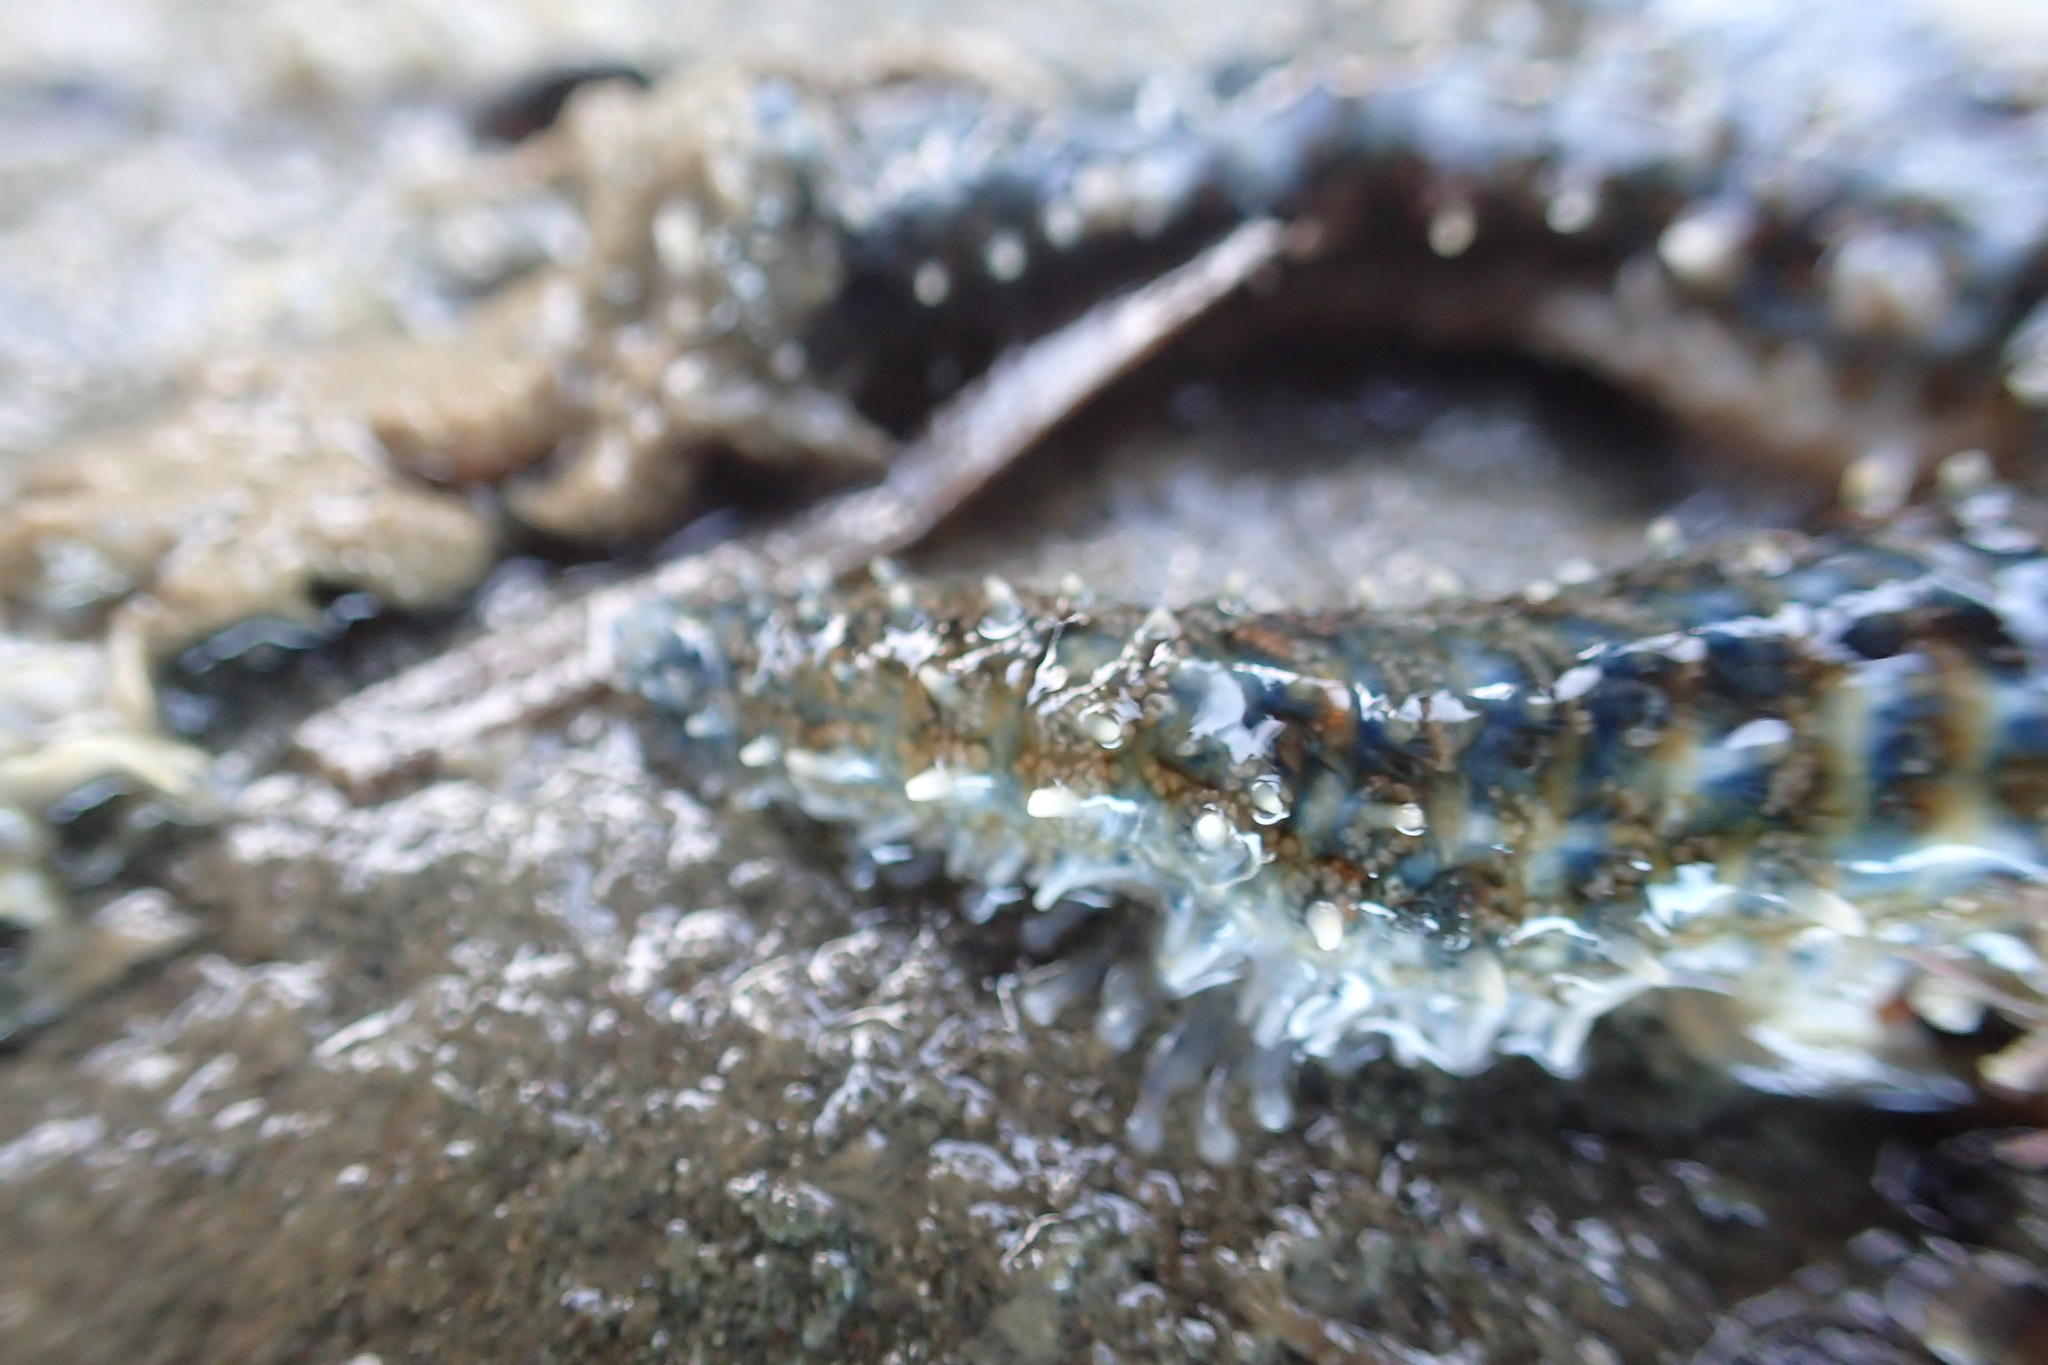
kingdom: Animalia
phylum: Echinodermata
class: Asteroidea
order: Forcipulatida
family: Asteriidae
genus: Coscinasterias
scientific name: Coscinasterias muricata
